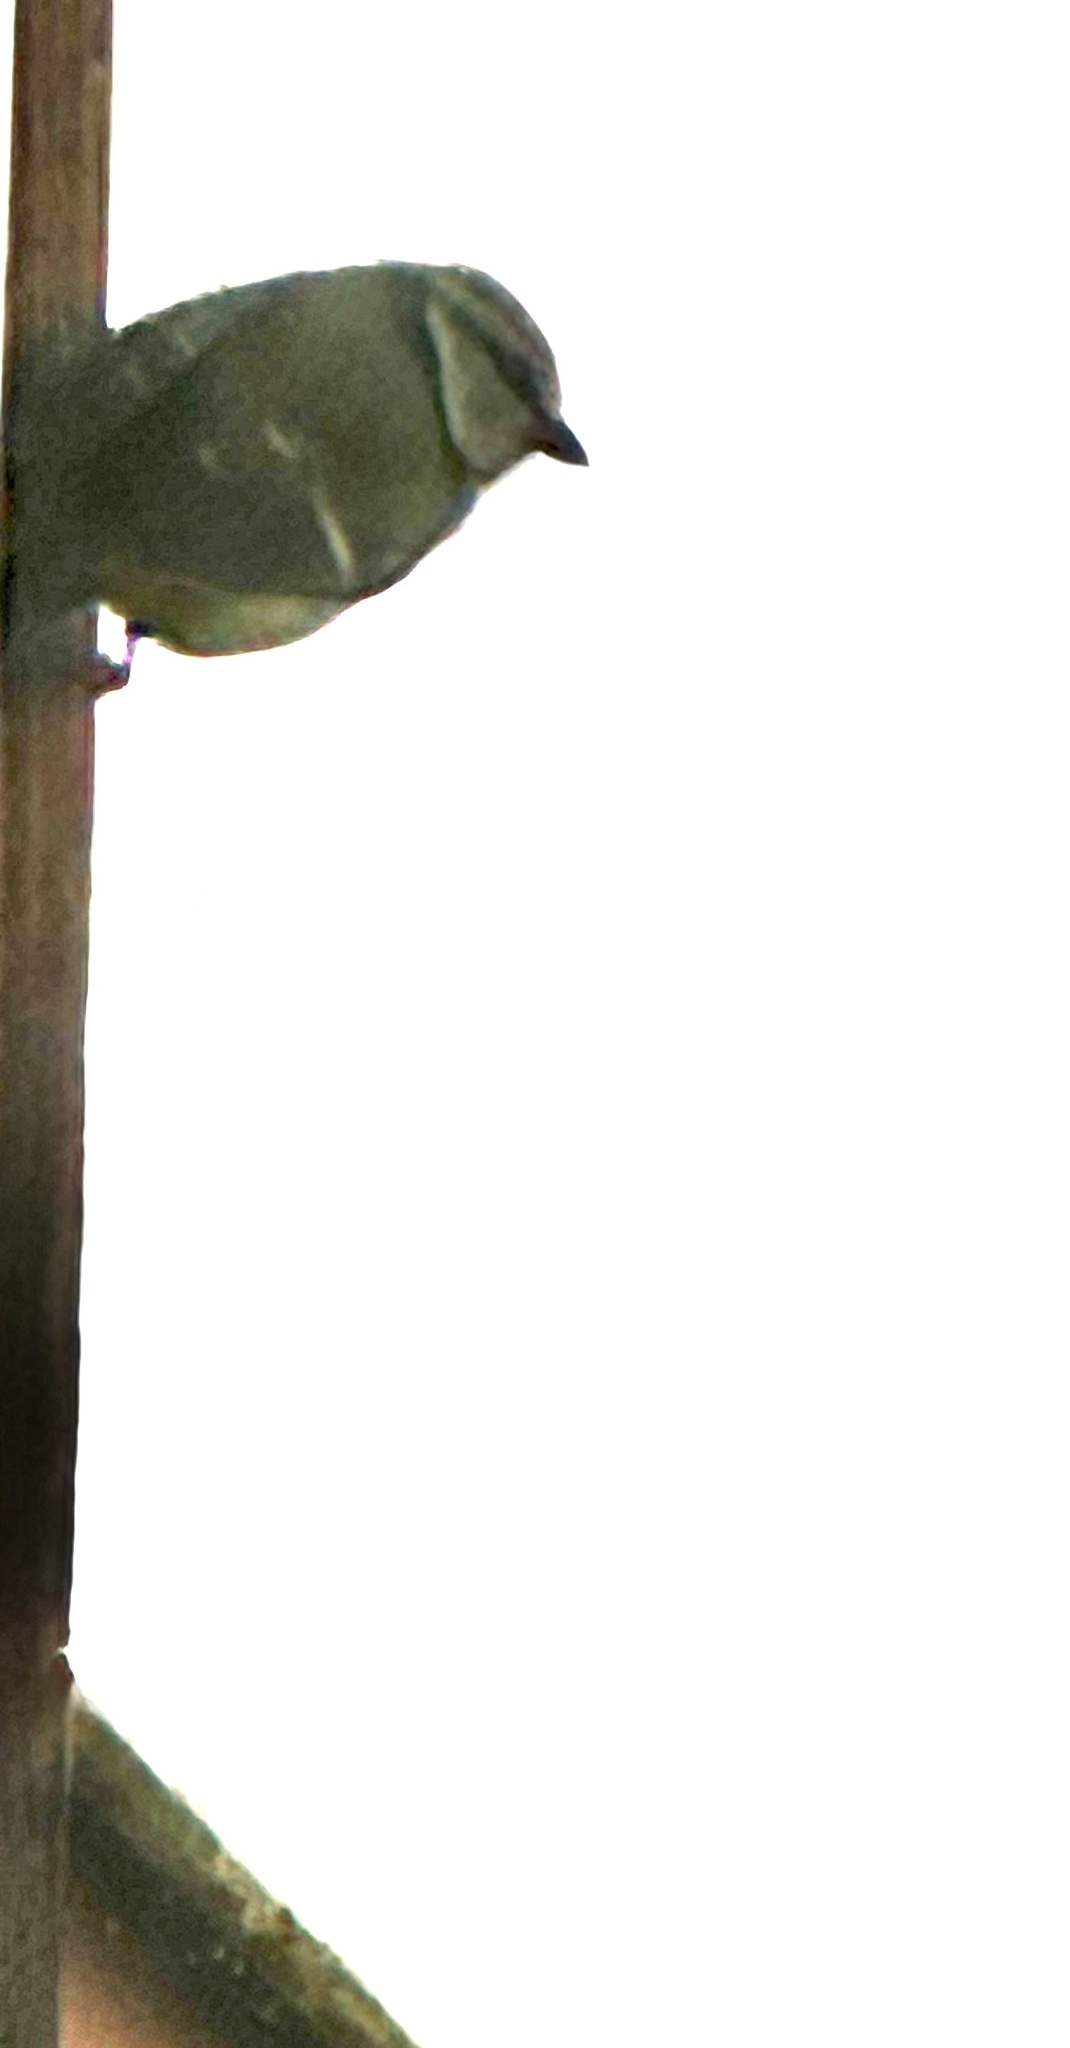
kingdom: Animalia
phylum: Chordata
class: Aves
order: Passeriformes
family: Paridae
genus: Cyanistes
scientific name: Cyanistes caeruleus
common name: Eurasian blue tit
